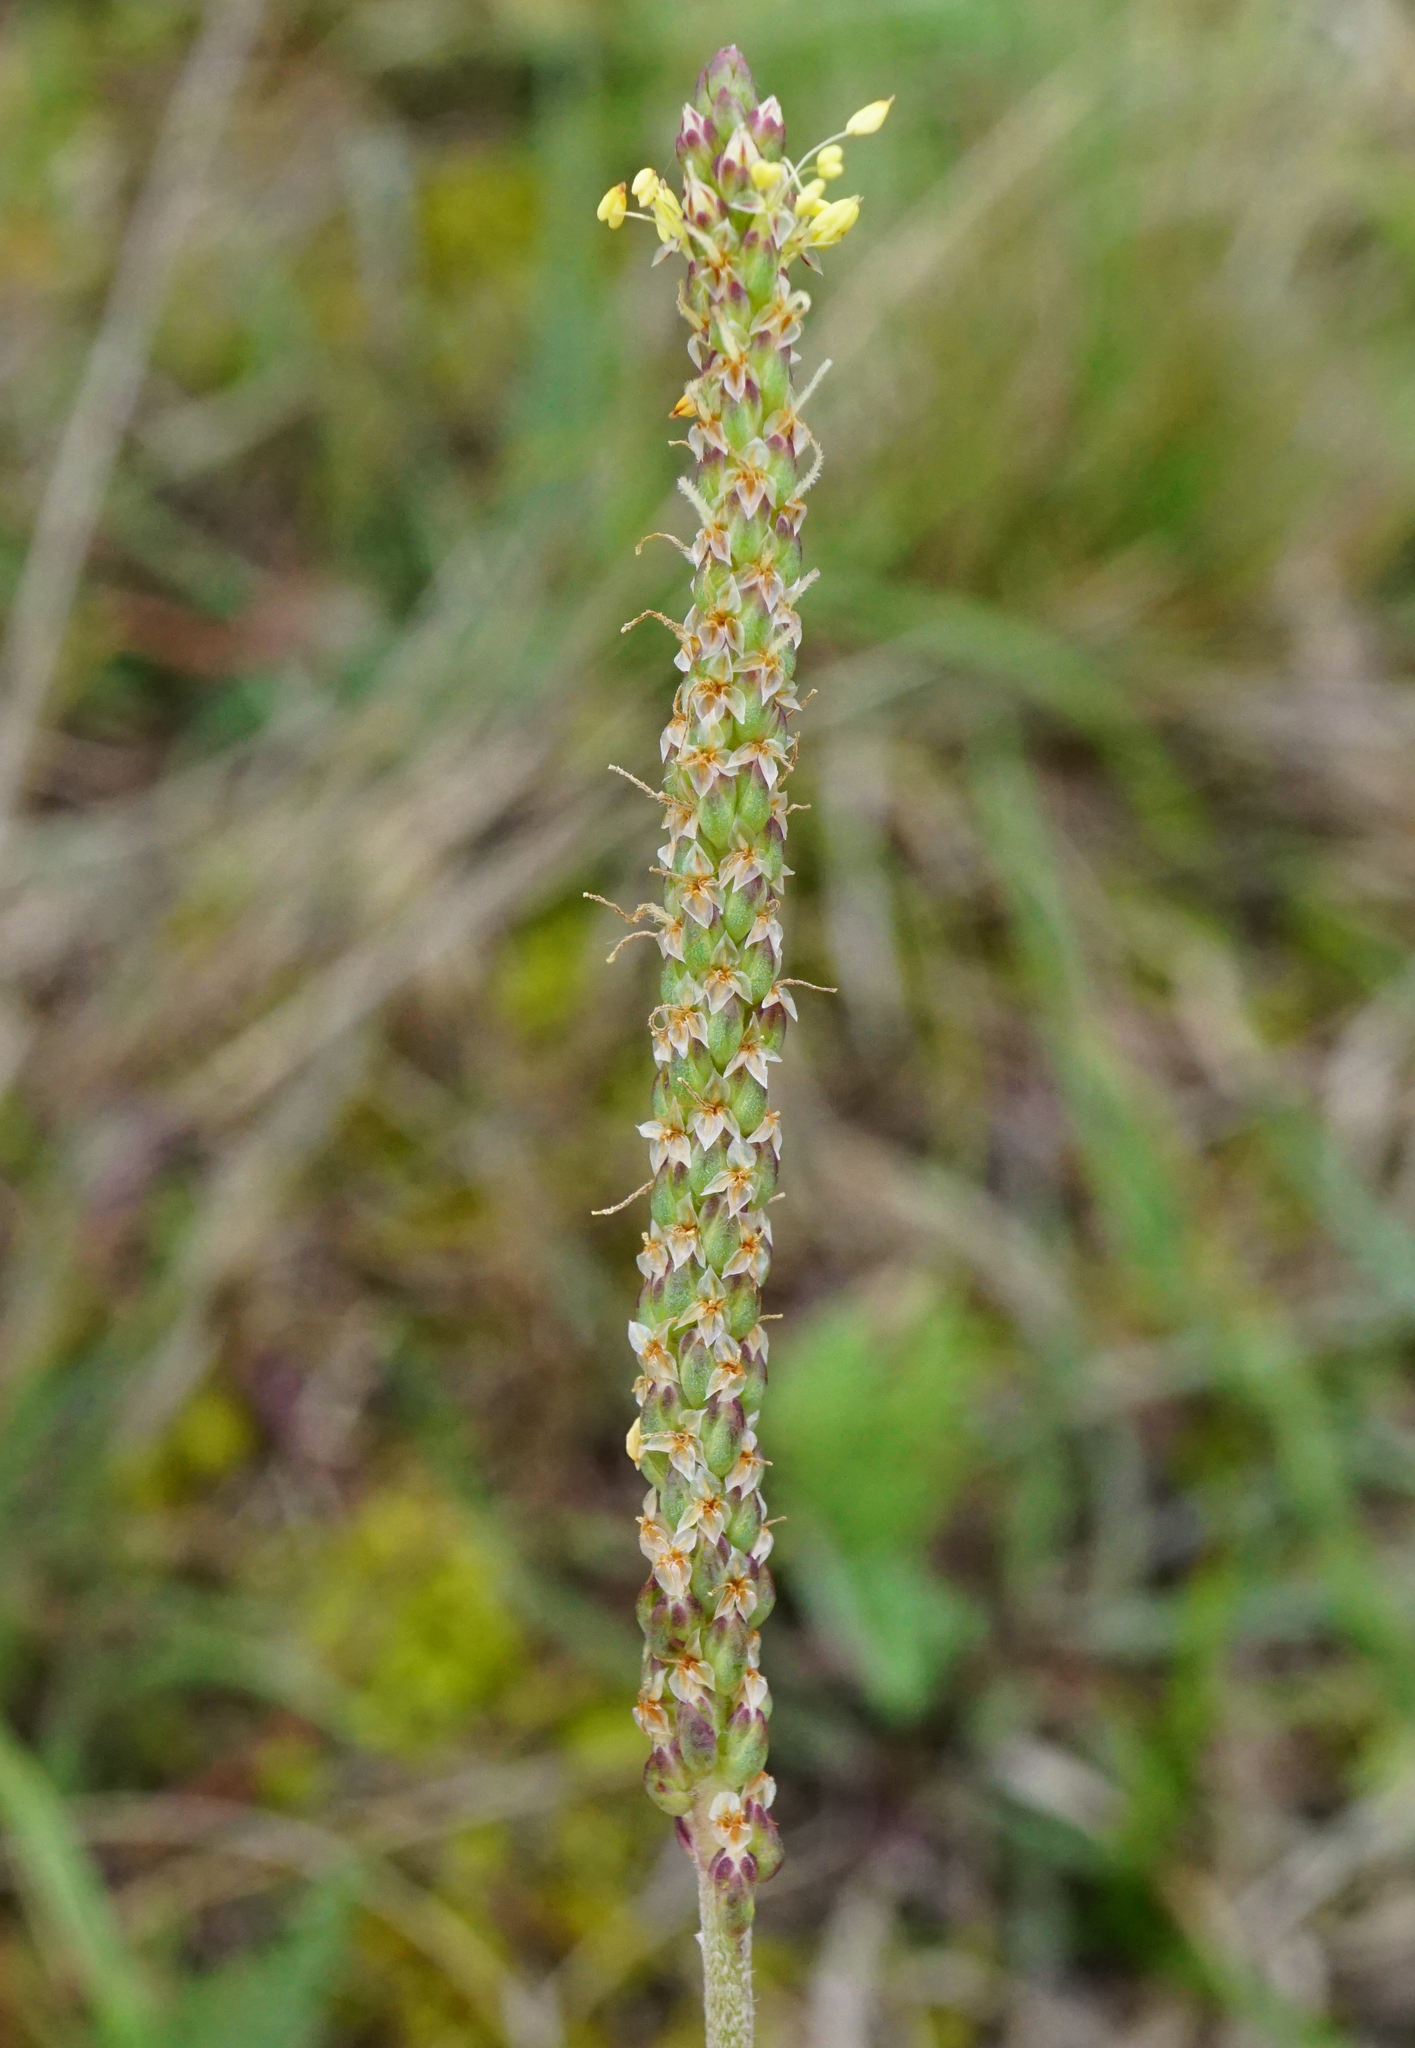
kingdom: Plantae
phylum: Tracheophyta
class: Magnoliopsida
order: Lamiales
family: Plantaginaceae
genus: Plantago
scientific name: Plantago maritima
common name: Sea plantain
